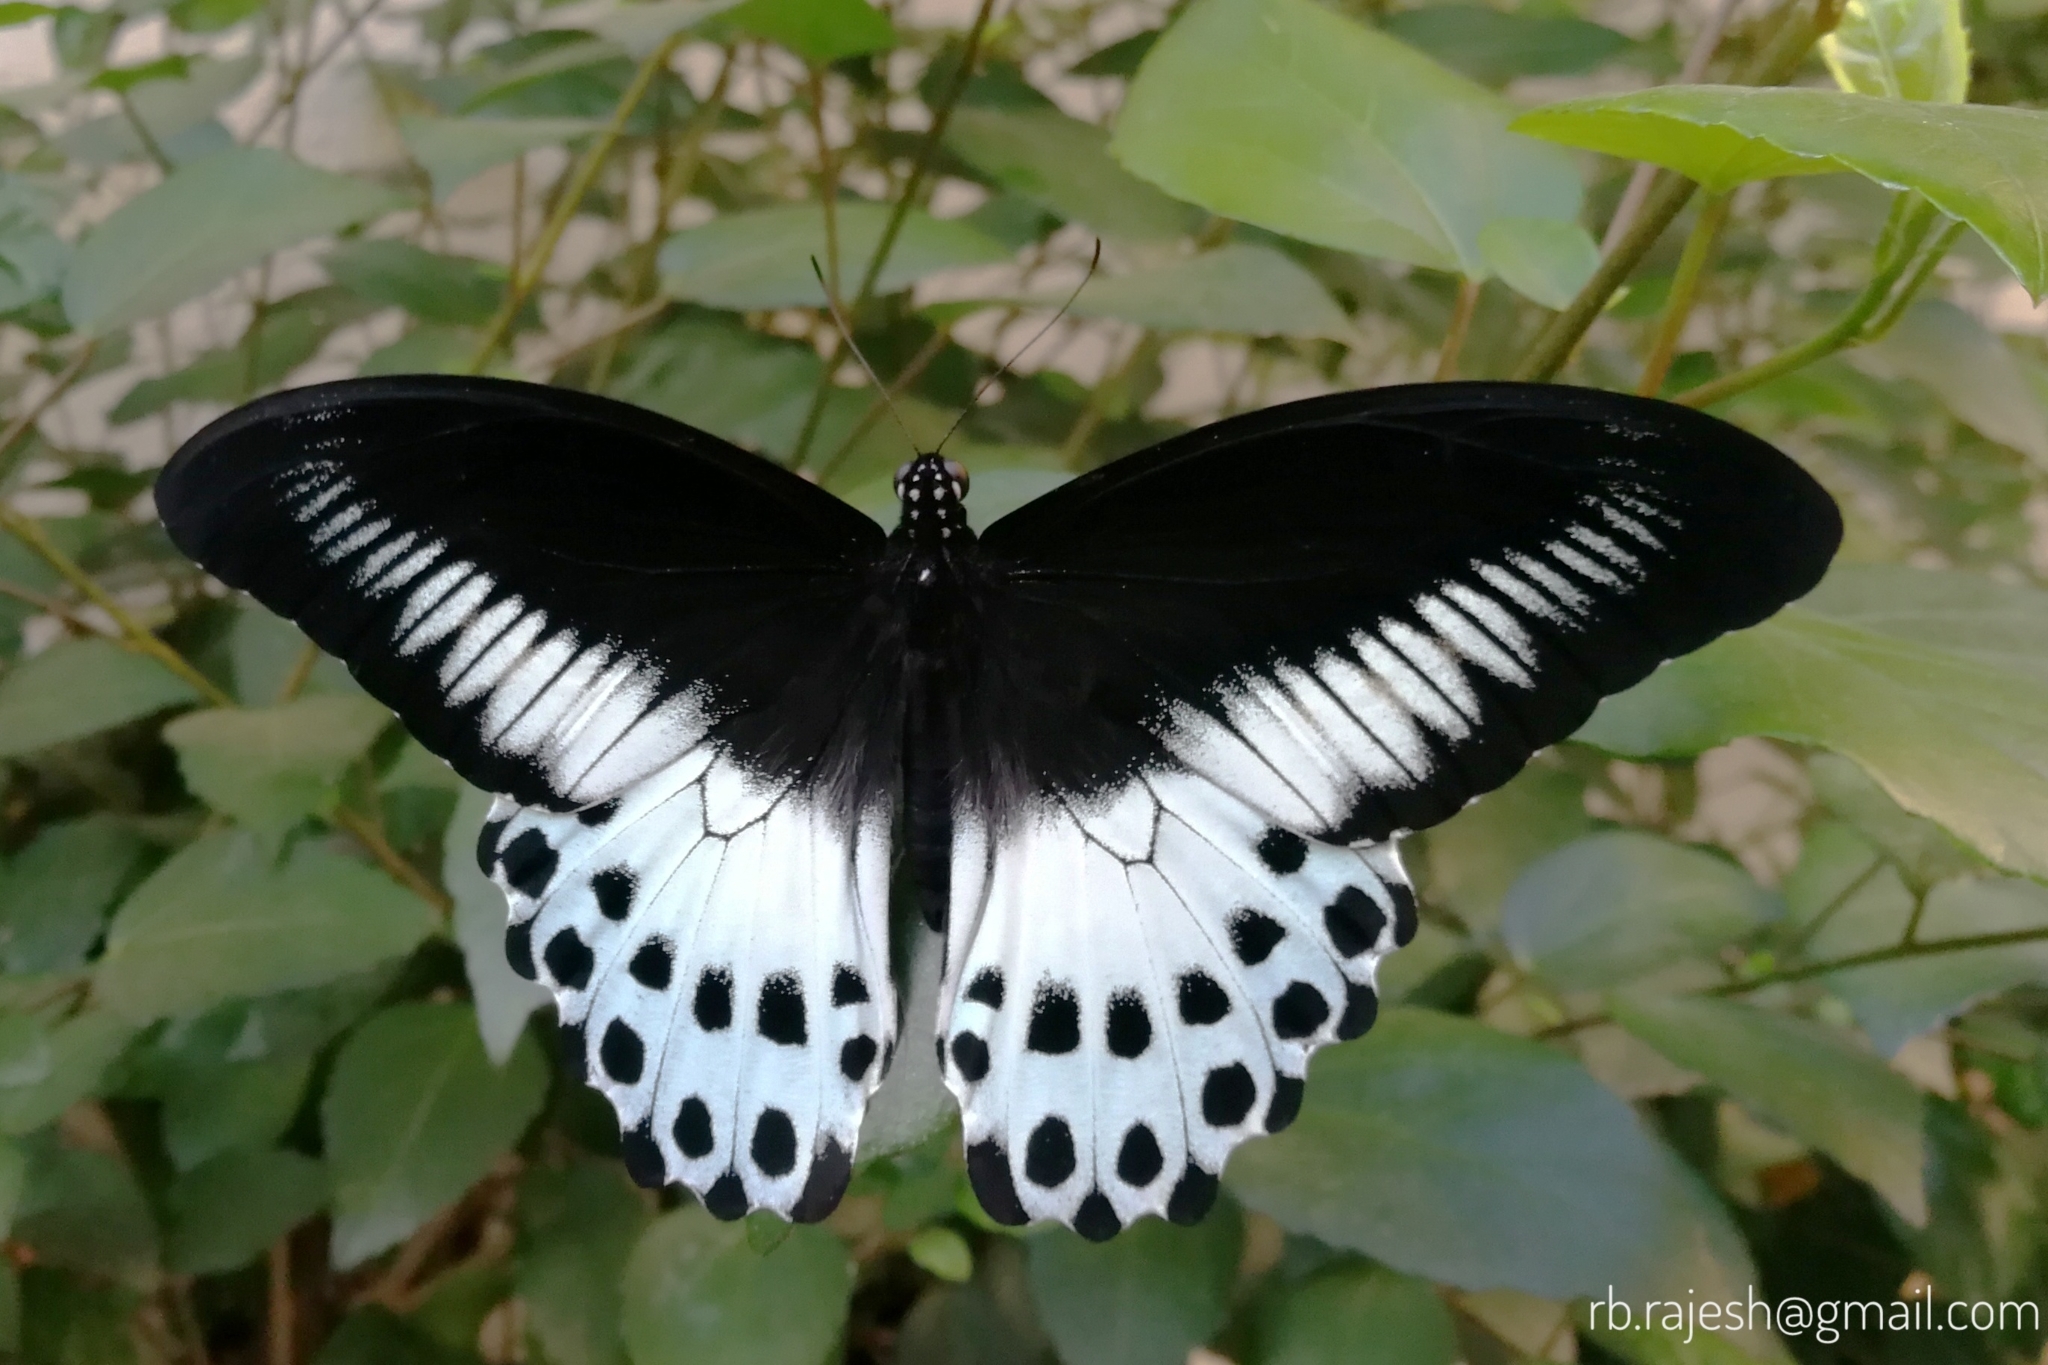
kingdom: Animalia
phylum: Arthropoda
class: Insecta
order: Lepidoptera
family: Papilionidae
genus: Papilio
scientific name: Papilio memnon
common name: Great mormon
